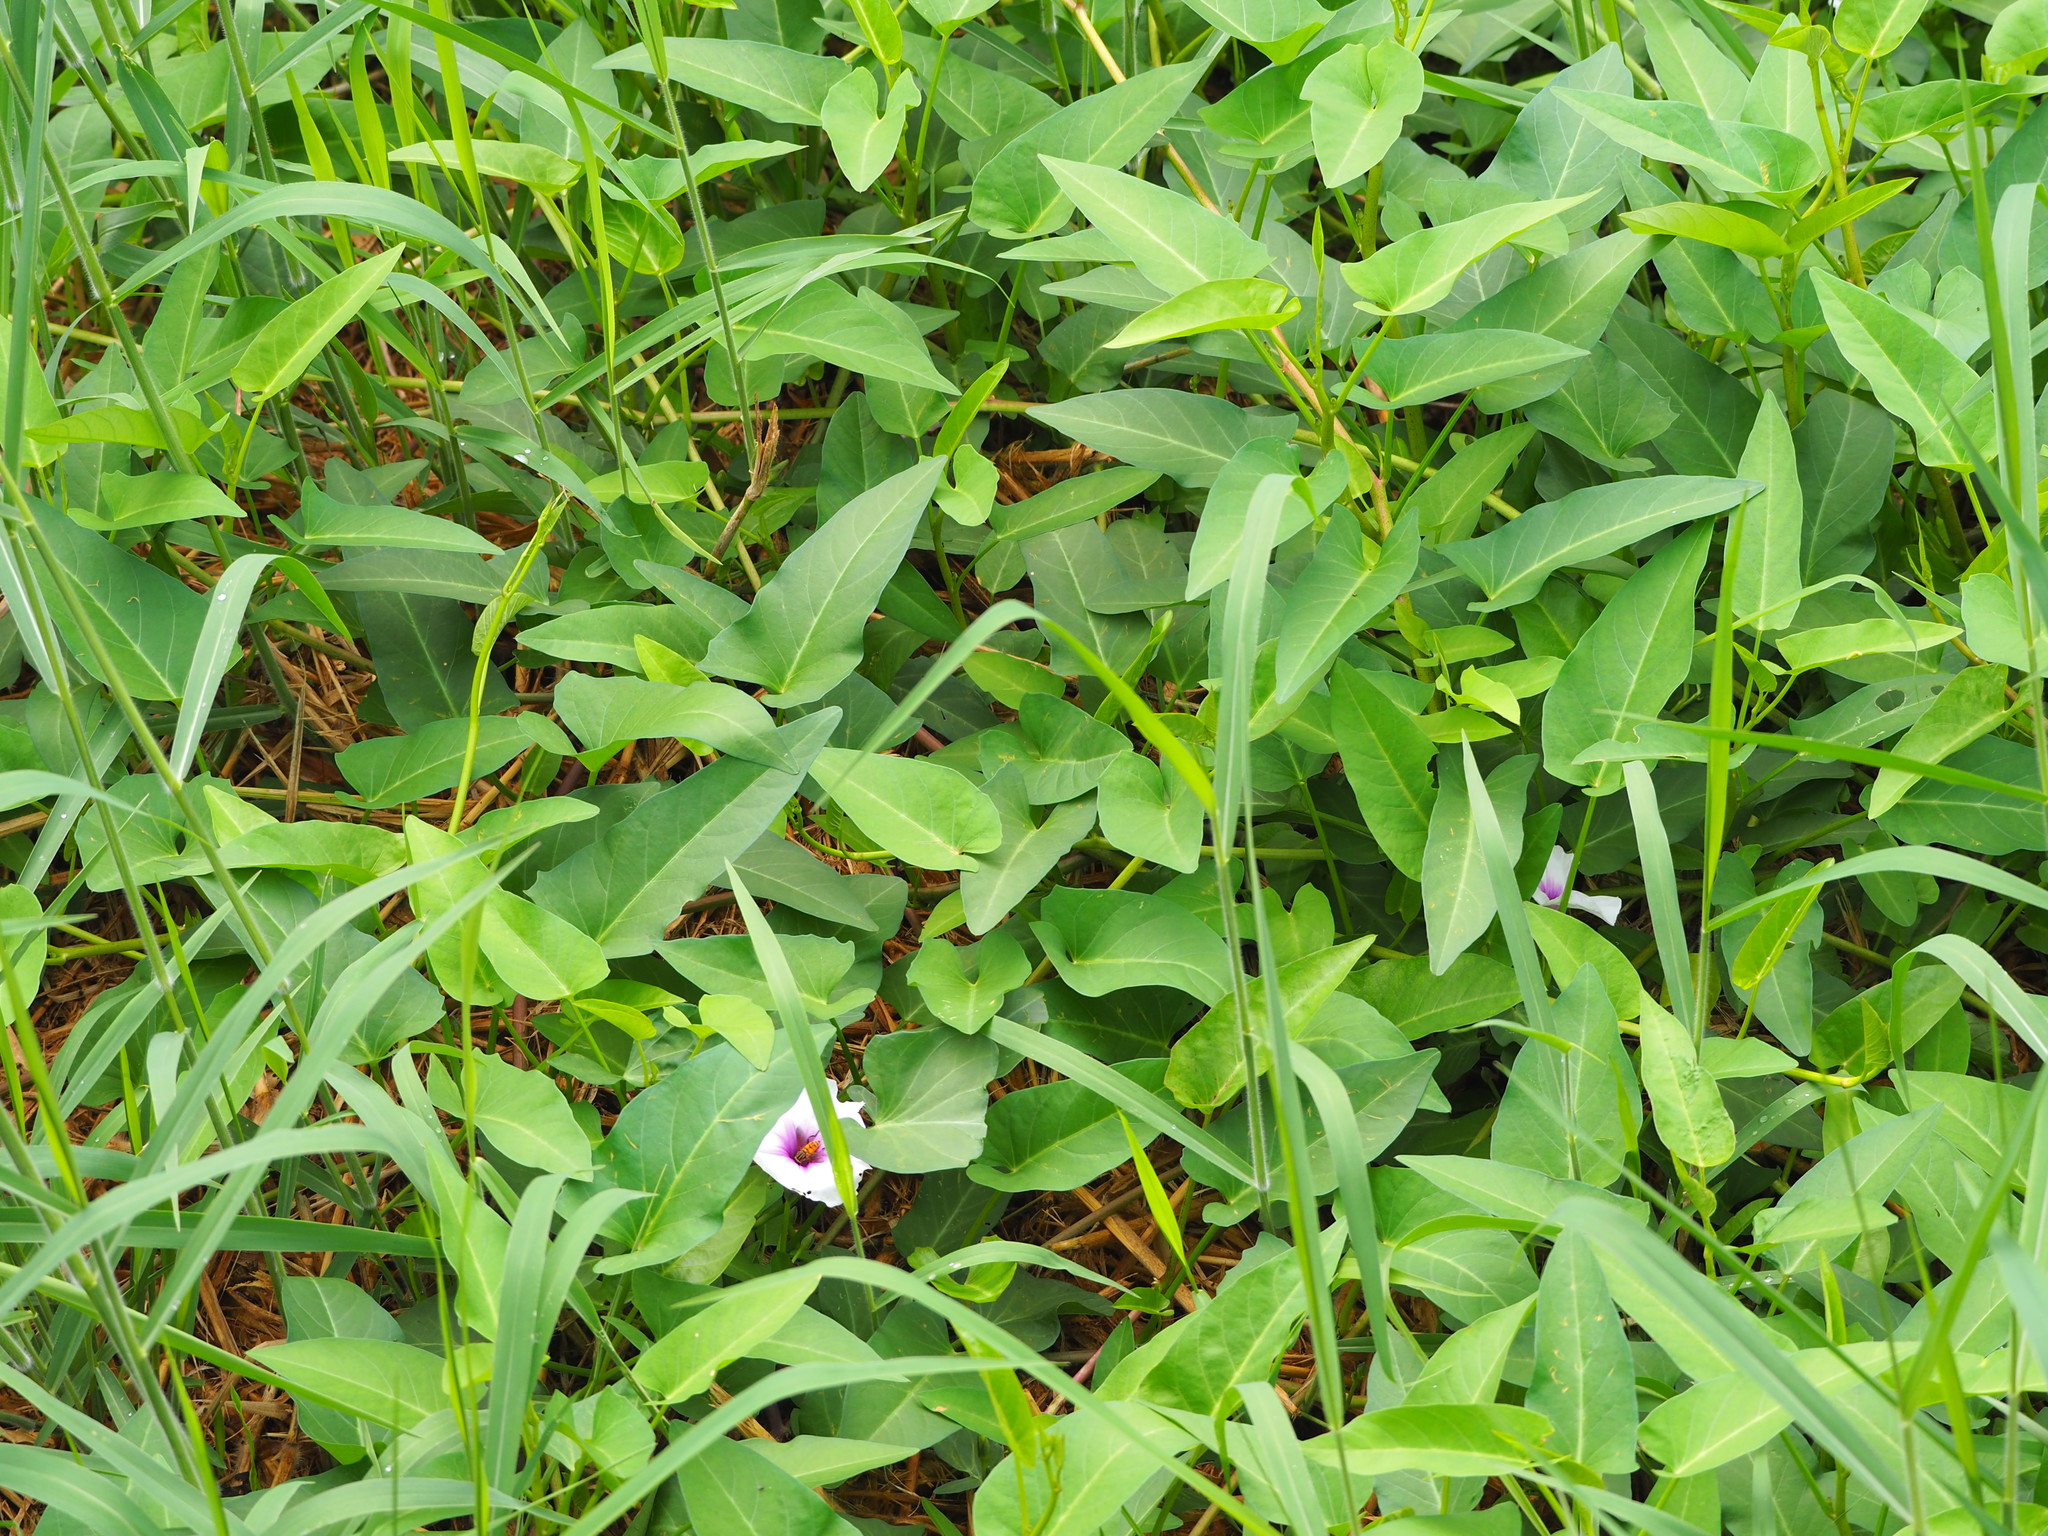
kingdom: Plantae
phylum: Tracheophyta
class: Magnoliopsida
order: Solanales
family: Convolvulaceae
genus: Ipomoea
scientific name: Ipomoea aquatica
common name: Swamp morning-glory
